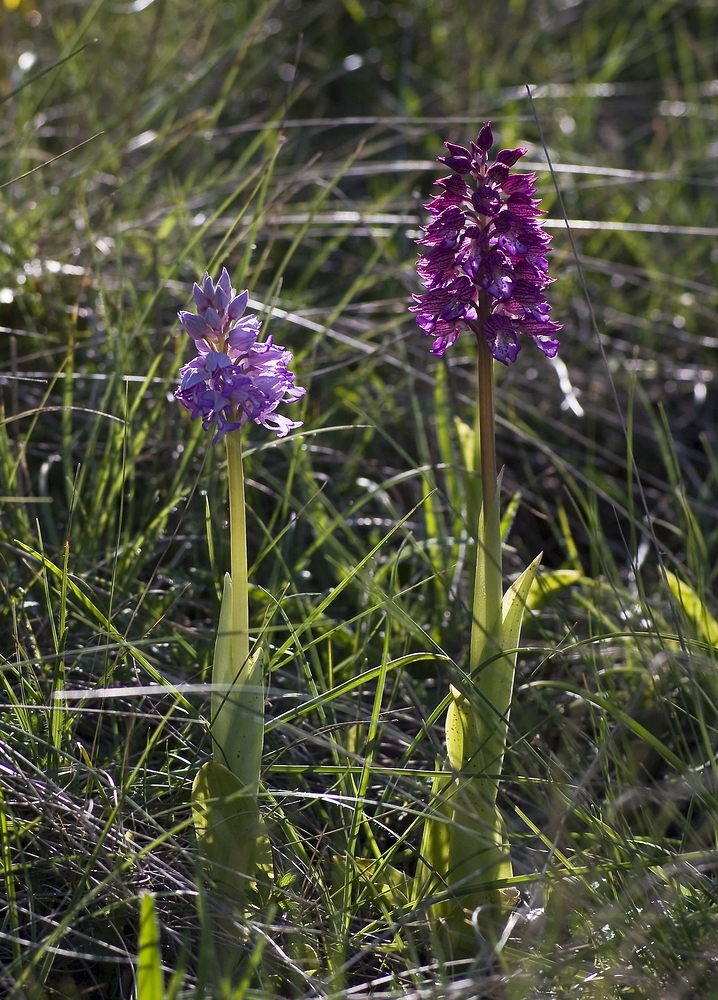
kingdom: Plantae
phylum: Tracheophyta
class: Liliopsida
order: Asparagales
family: Orchidaceae
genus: Orchis
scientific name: Orchis militaris
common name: Military orchid
